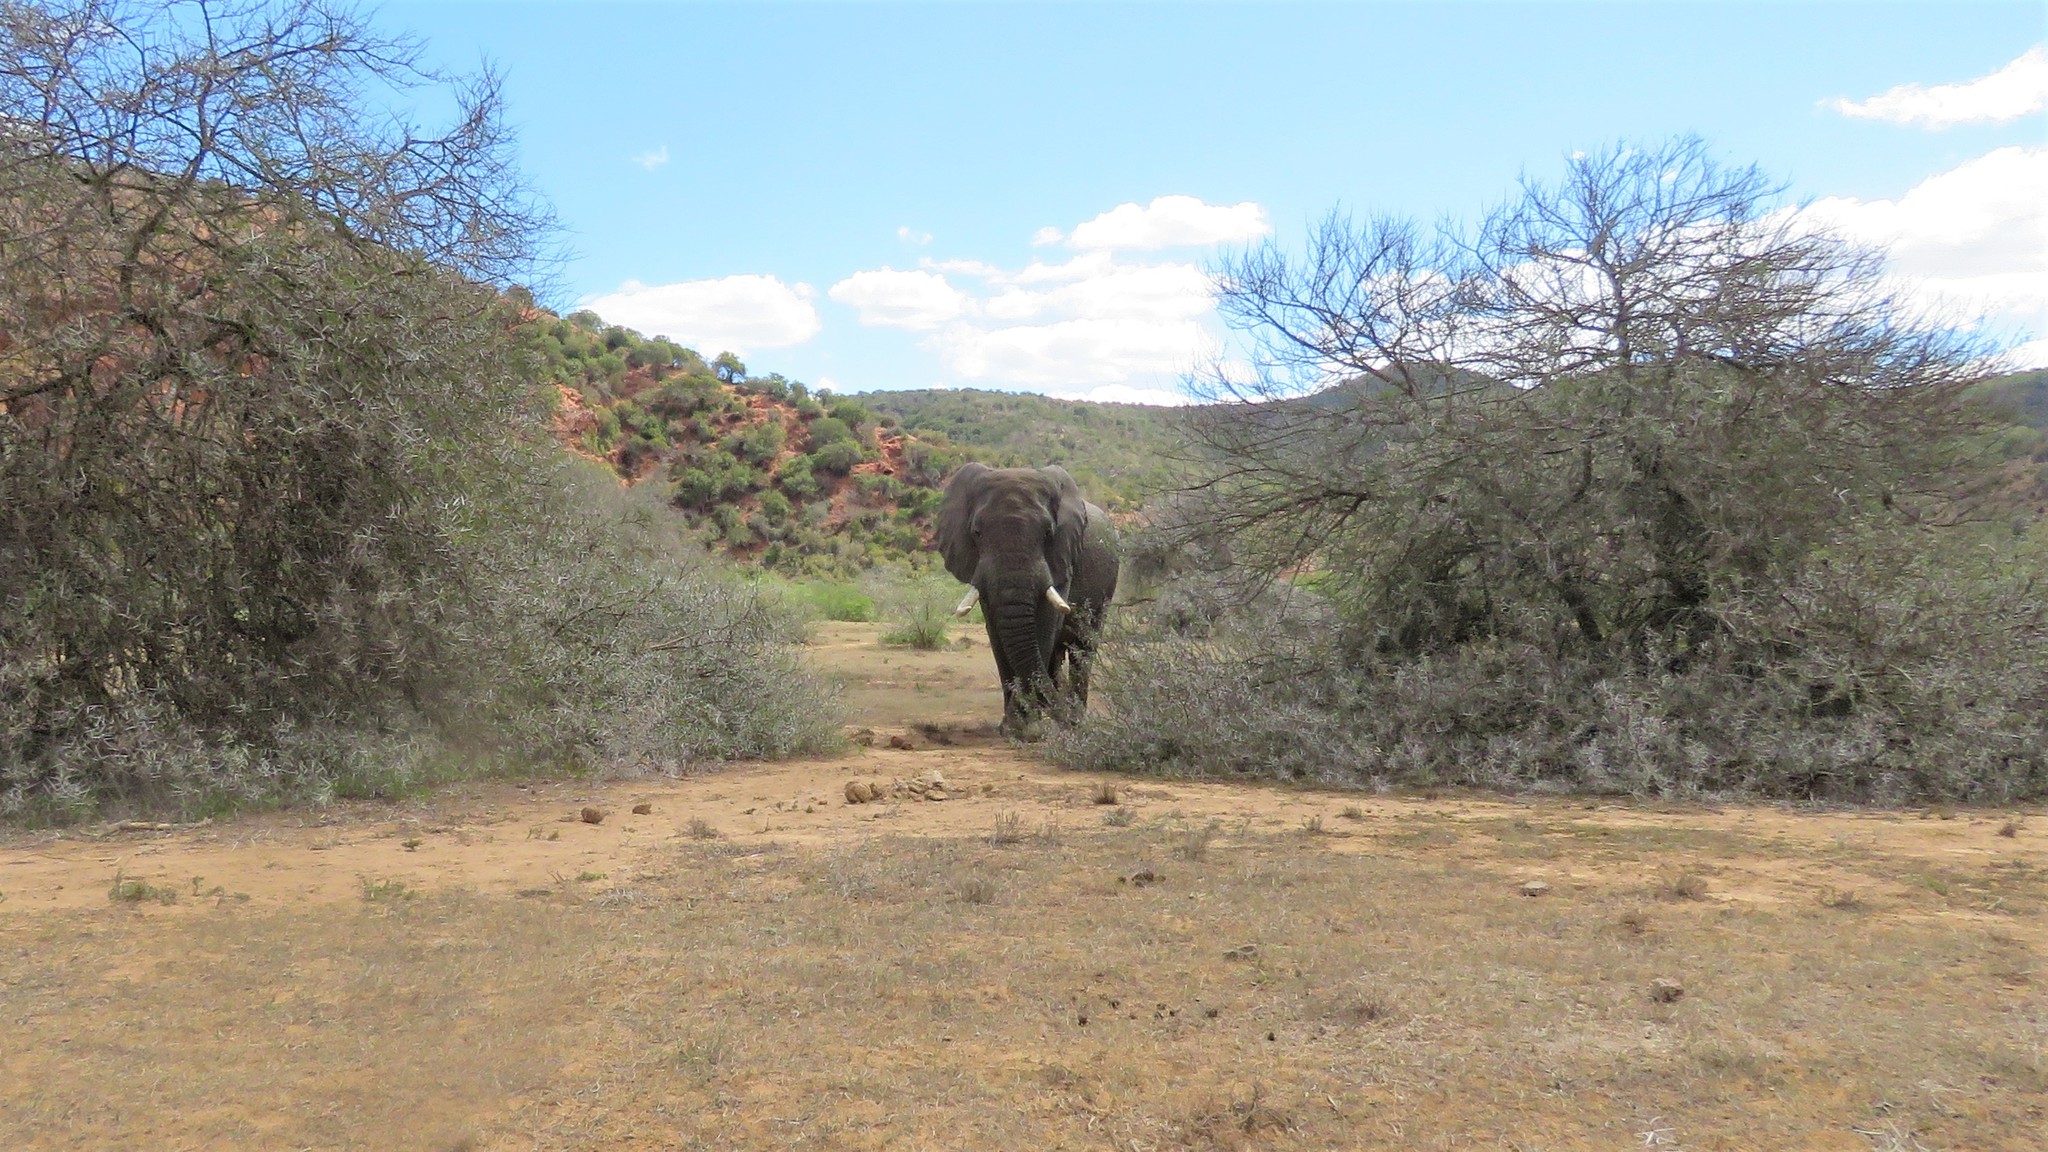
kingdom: Animalia
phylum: Chordata
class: Mammalia
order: Proboscidea
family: Elephantidae
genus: Loxodonta
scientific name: Loxodonta africana
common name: African elephant
